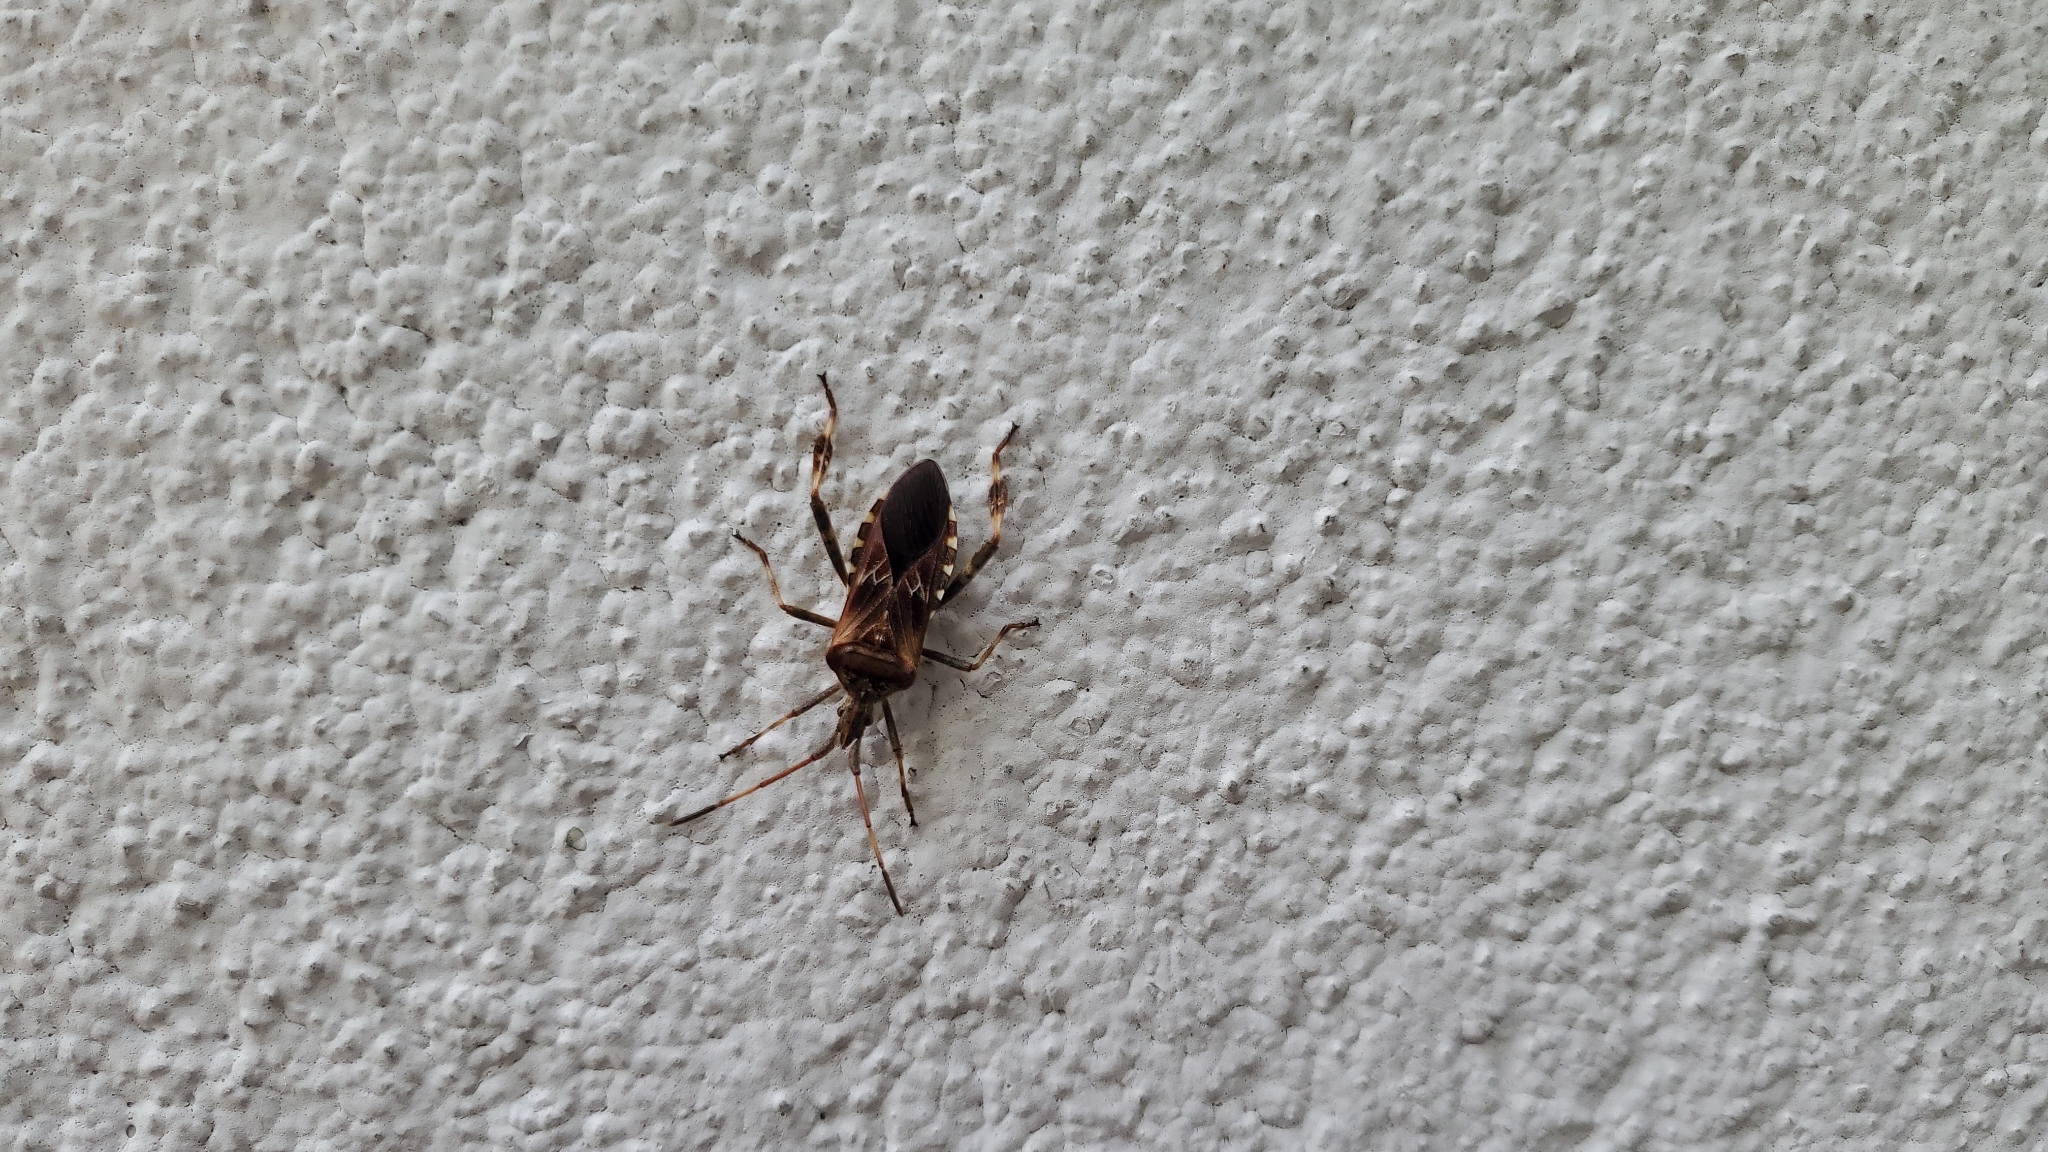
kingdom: Animalia
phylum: Arthropoda
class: Insecta
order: Hemiptera
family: Coreidae
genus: Leptoglossus
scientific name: Leptoglossus occidentalis
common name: Western conifer-seed bug
